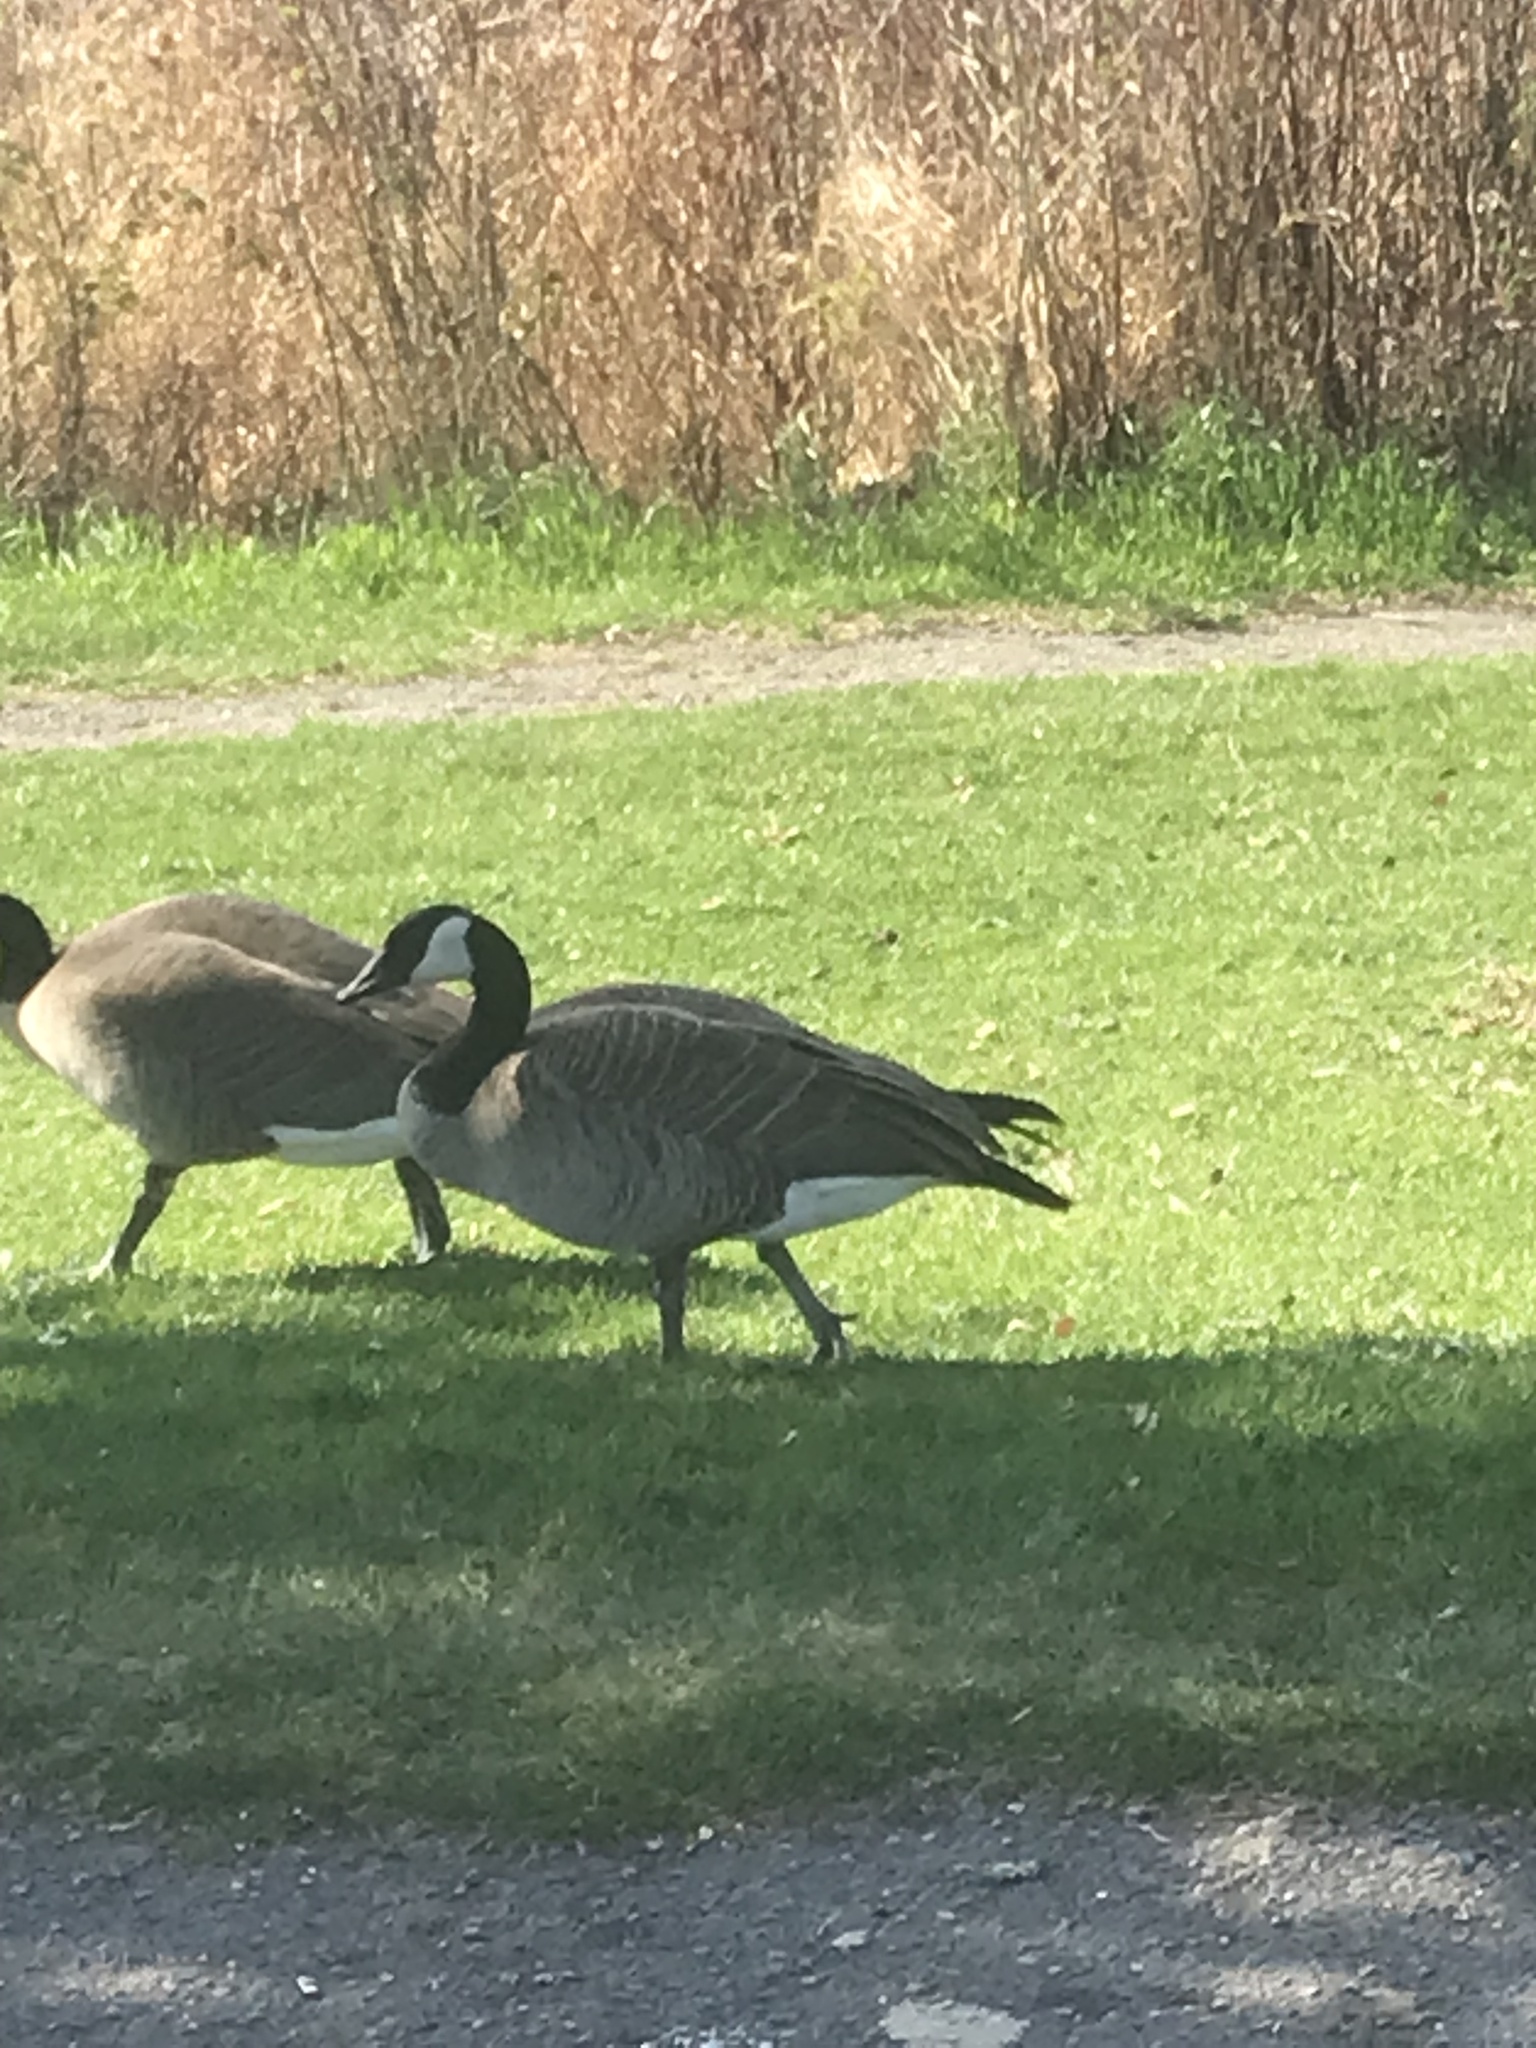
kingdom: Animalia
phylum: Chordata
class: Aves
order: Anseriformes
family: Anatidae
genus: Branta
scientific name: Branta canadensis
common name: Canada goose
